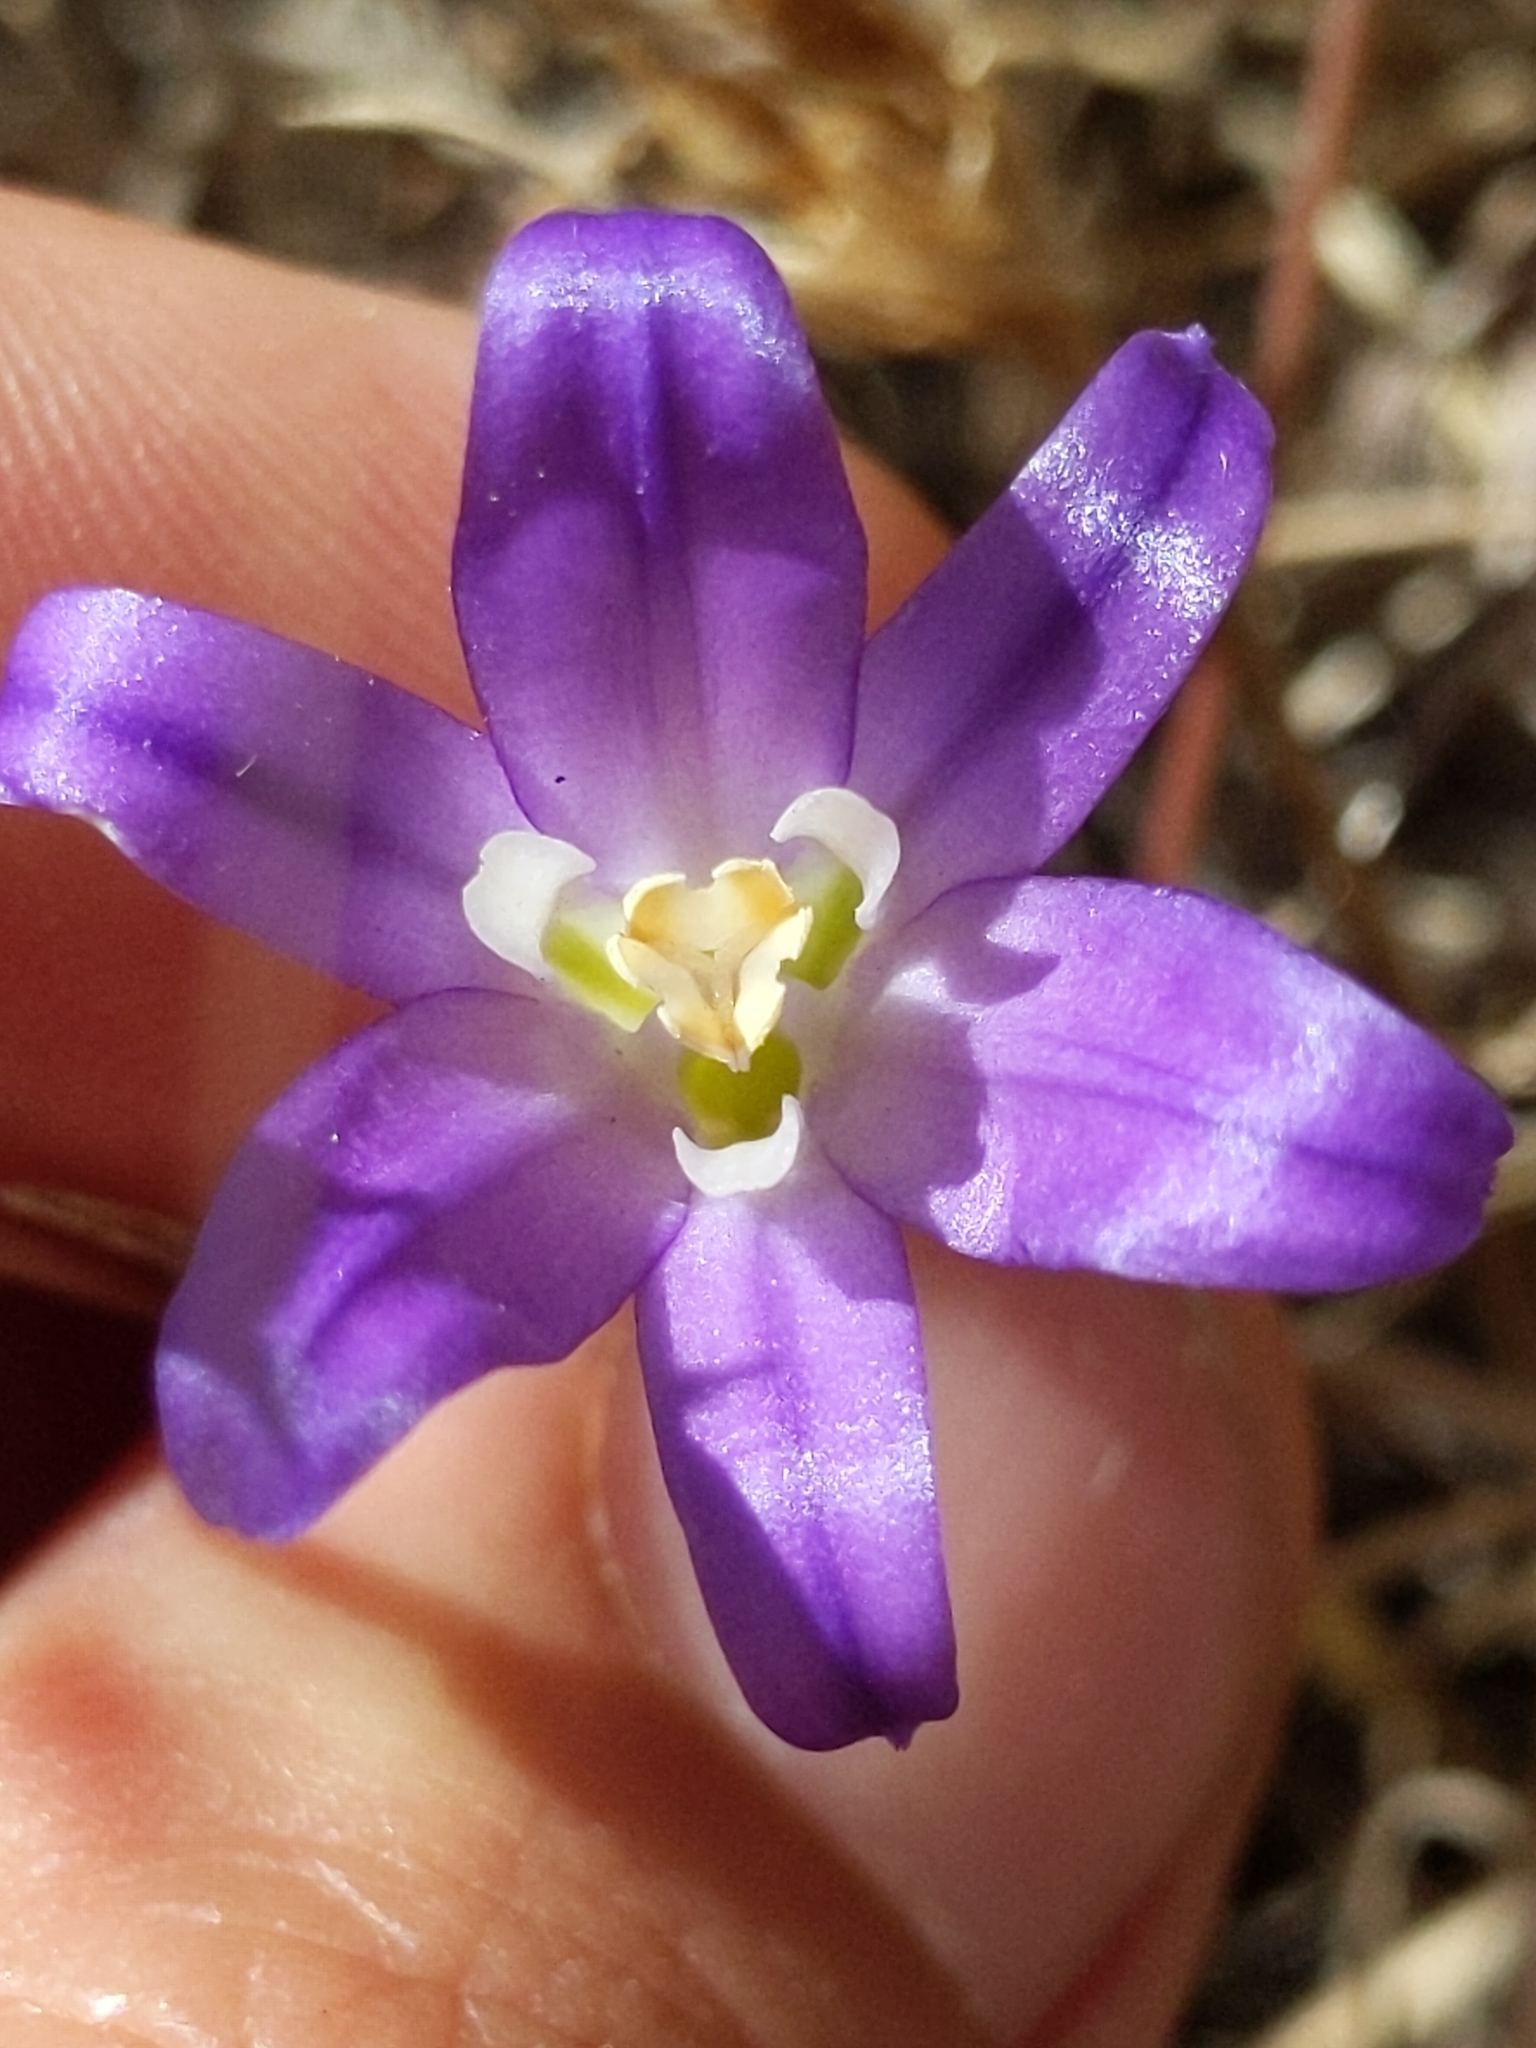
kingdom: Plantae
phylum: Tracheophyta
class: Liliopsida
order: Asparagales
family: Asparagaceae
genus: Brodiaea
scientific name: Brodiaea terrestris
